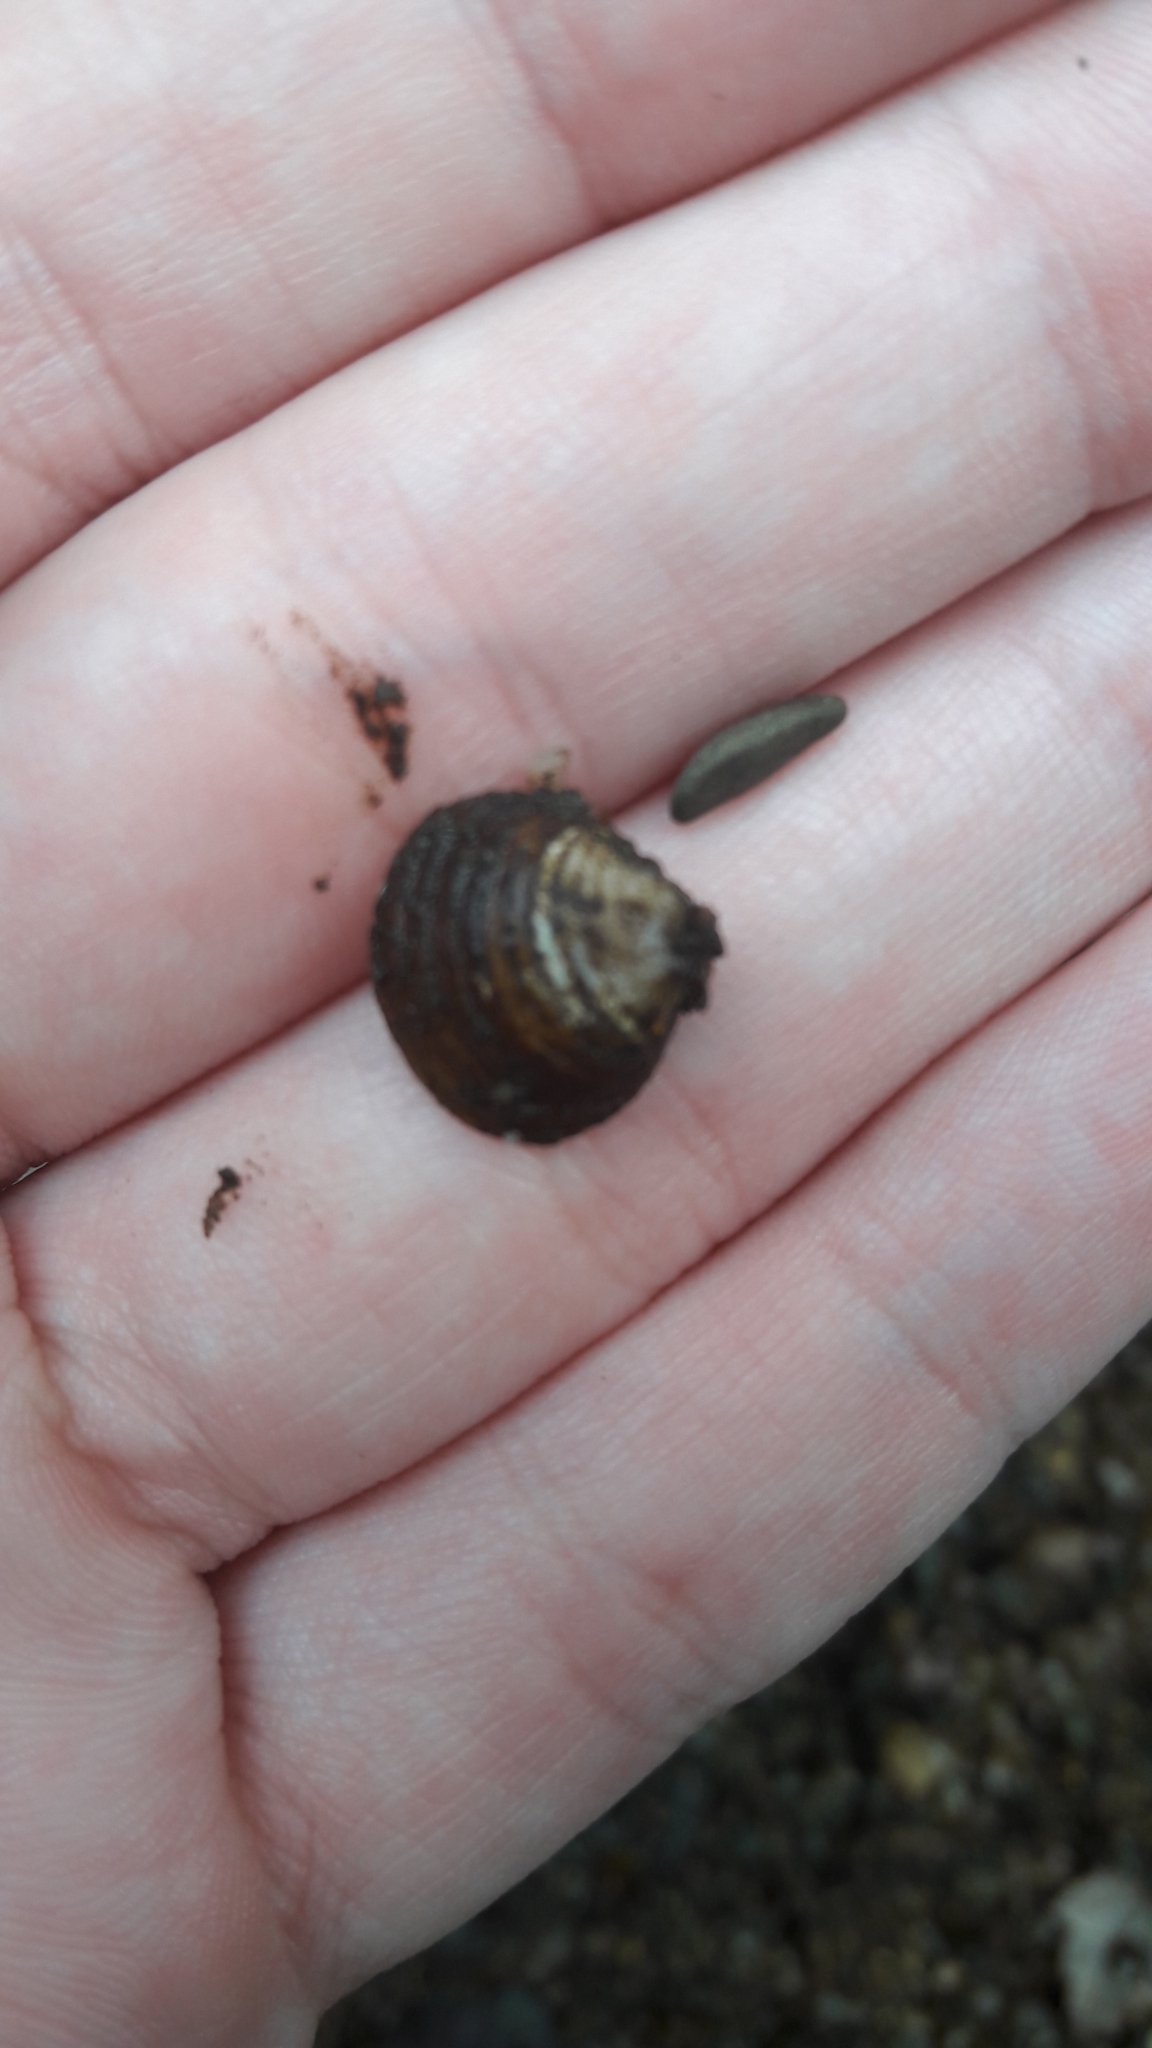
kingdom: Animalia
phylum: Mollusca
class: Bivalvia
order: Venerida
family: Cyrenidae
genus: Corbicula
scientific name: Corbicula fluminea
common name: Asian clam
